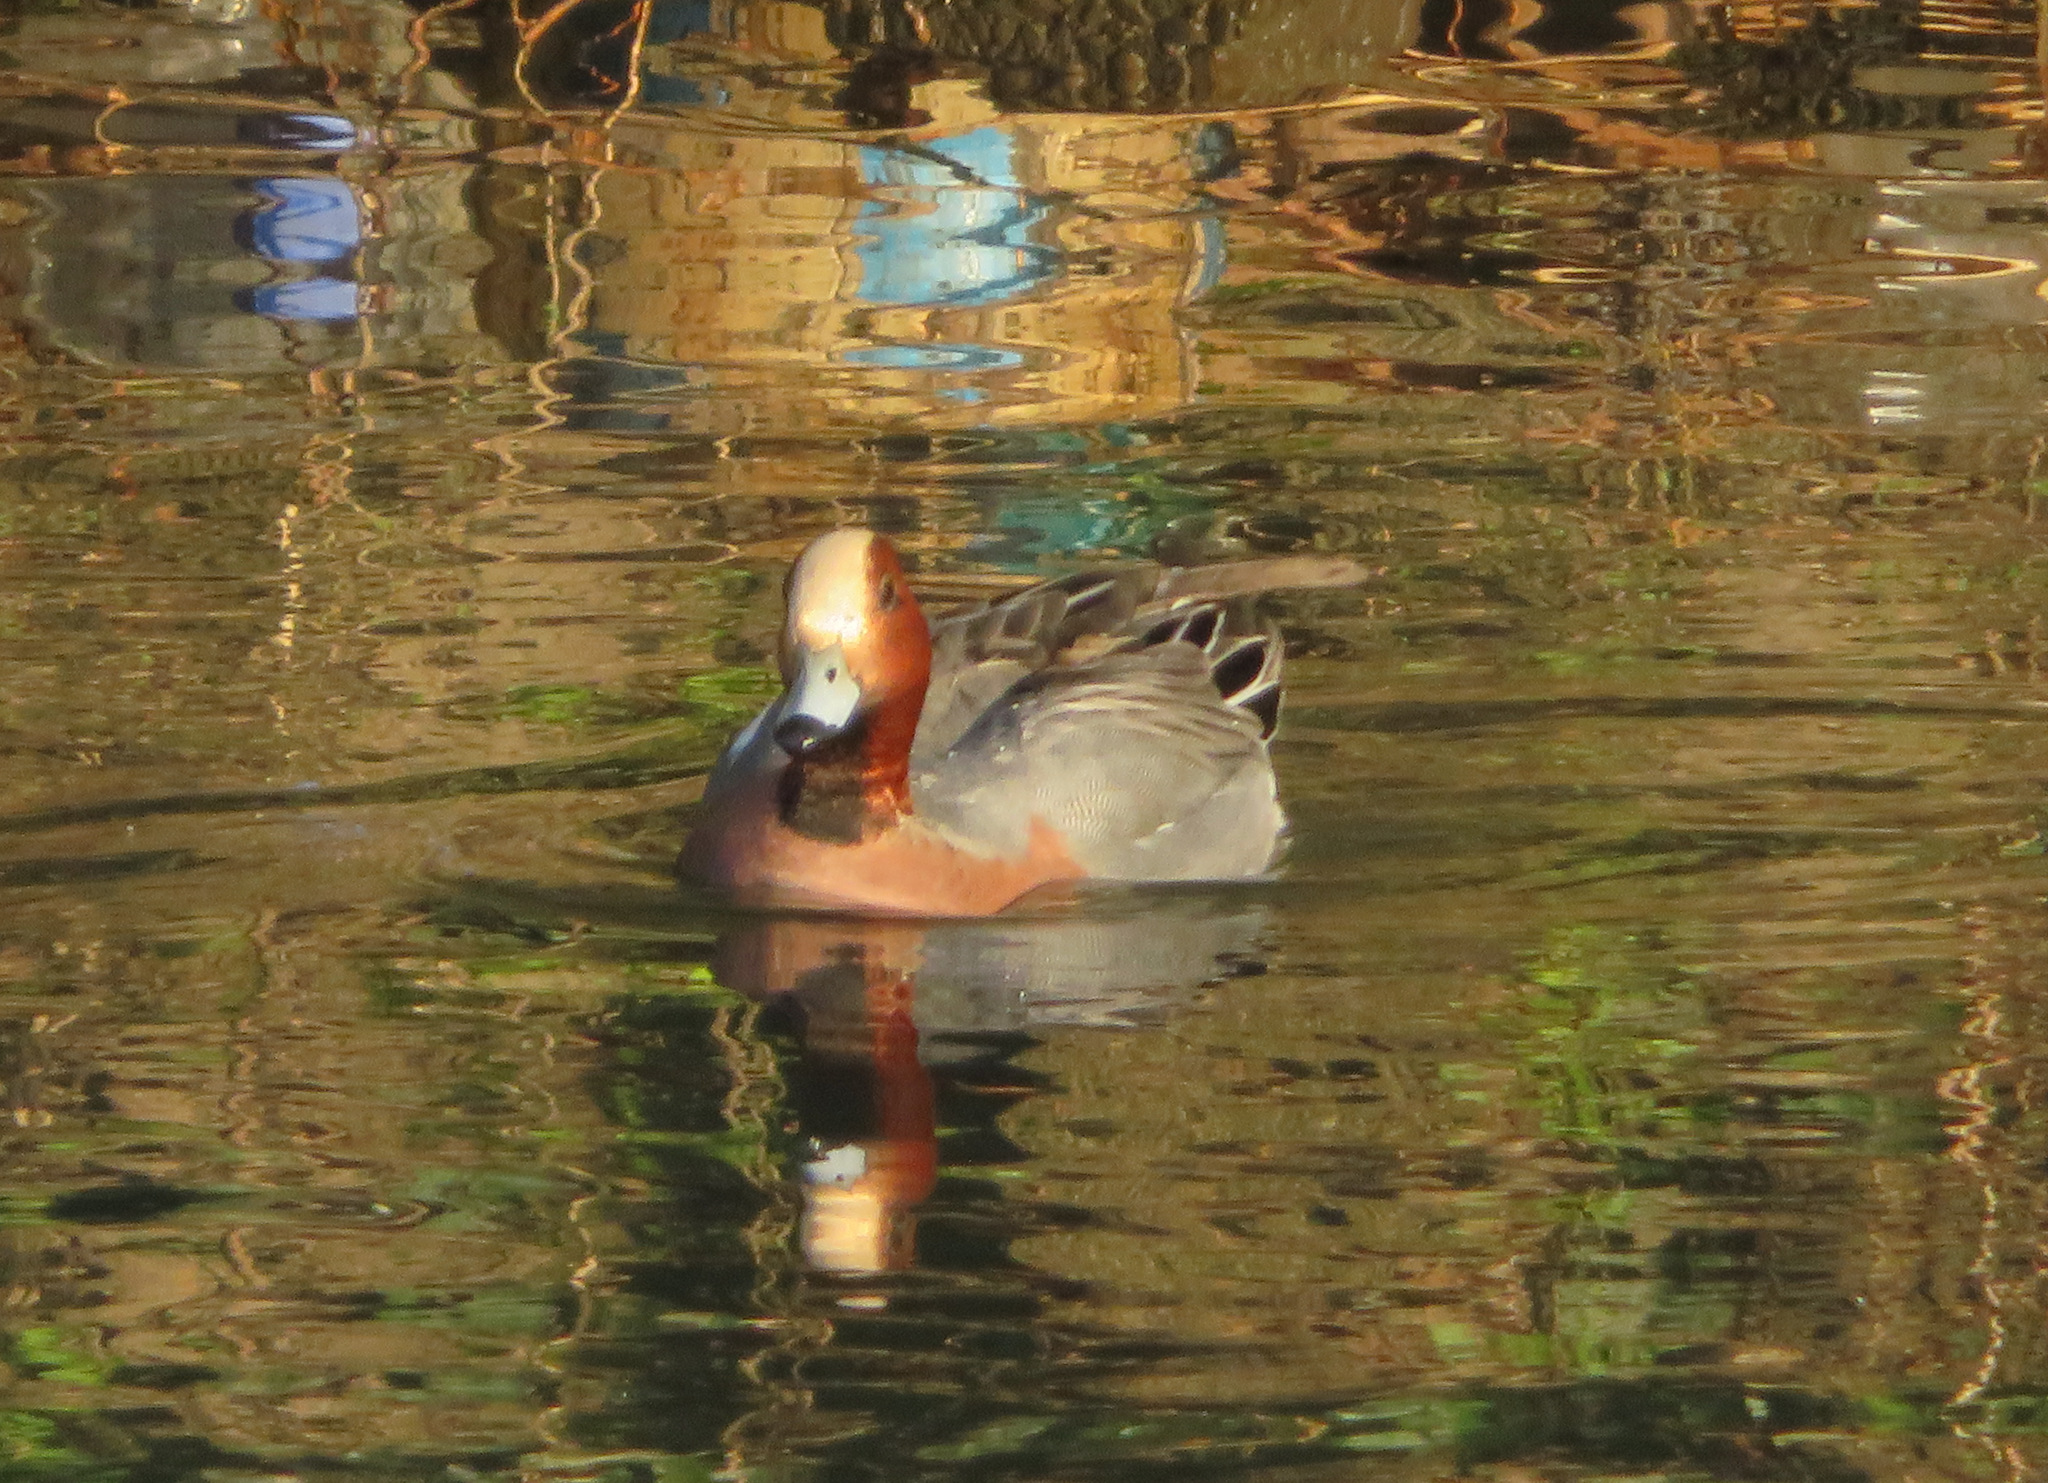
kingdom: Animalia
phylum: Chordata
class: Aves
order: Anseriformes
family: Anatidae
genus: Mareca
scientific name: Mareca penelope
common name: Eurasian wigeon
